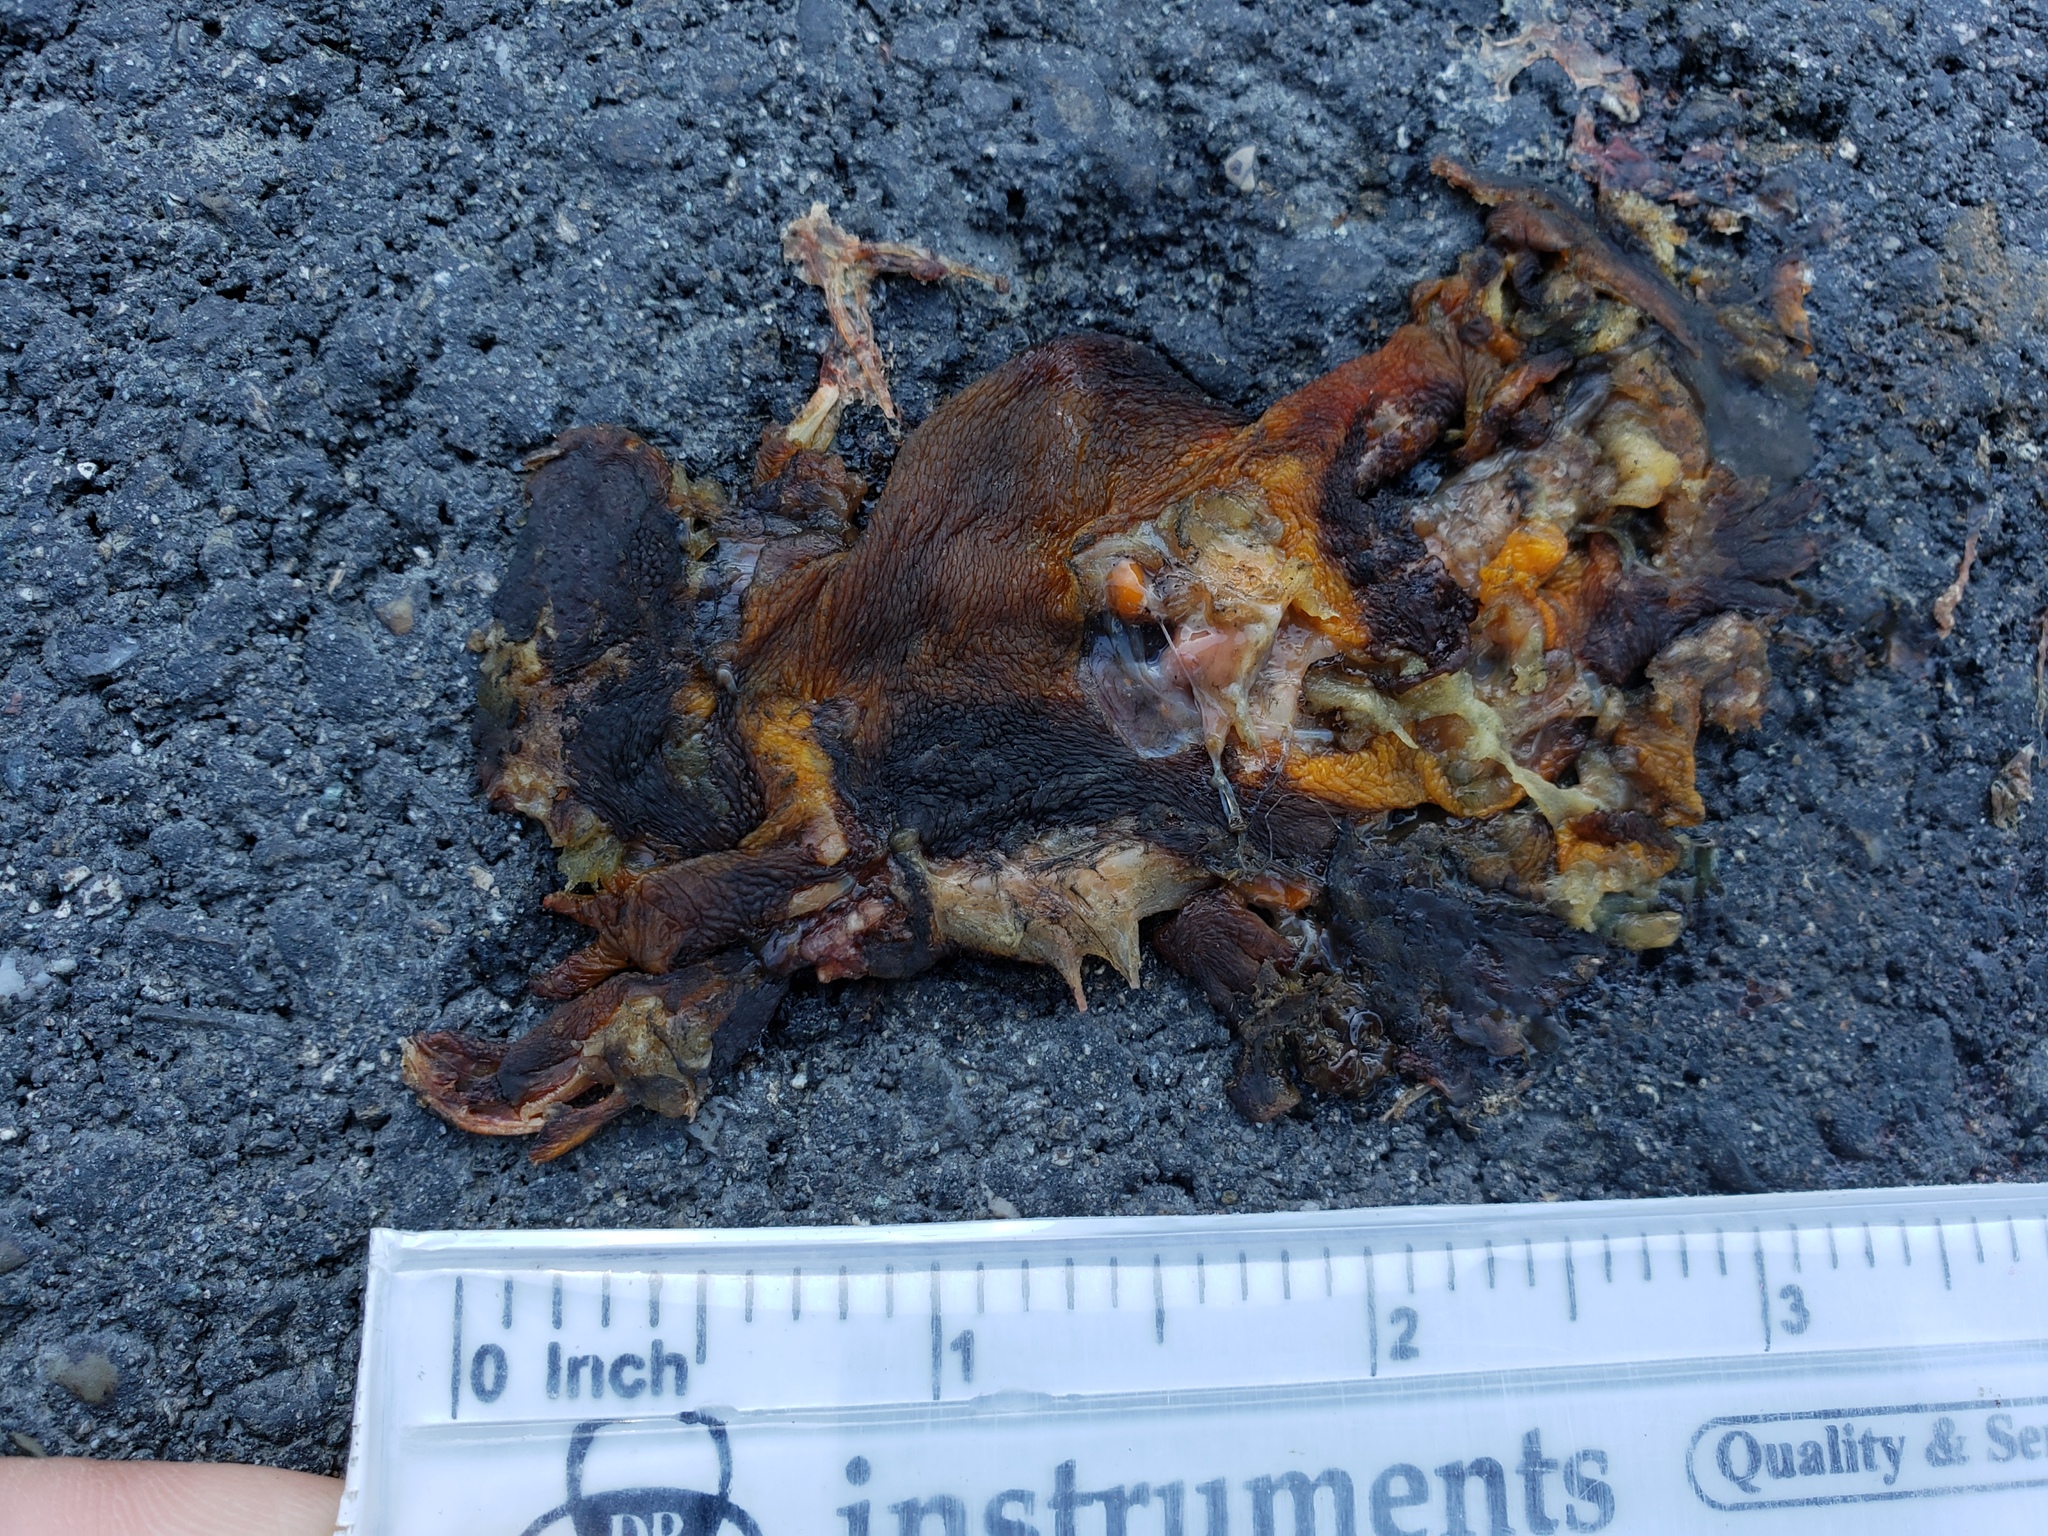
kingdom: Animalia
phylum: Chordata
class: Amphibia
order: Caudata
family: Salamandridae
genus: Taricha
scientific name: Taricha
